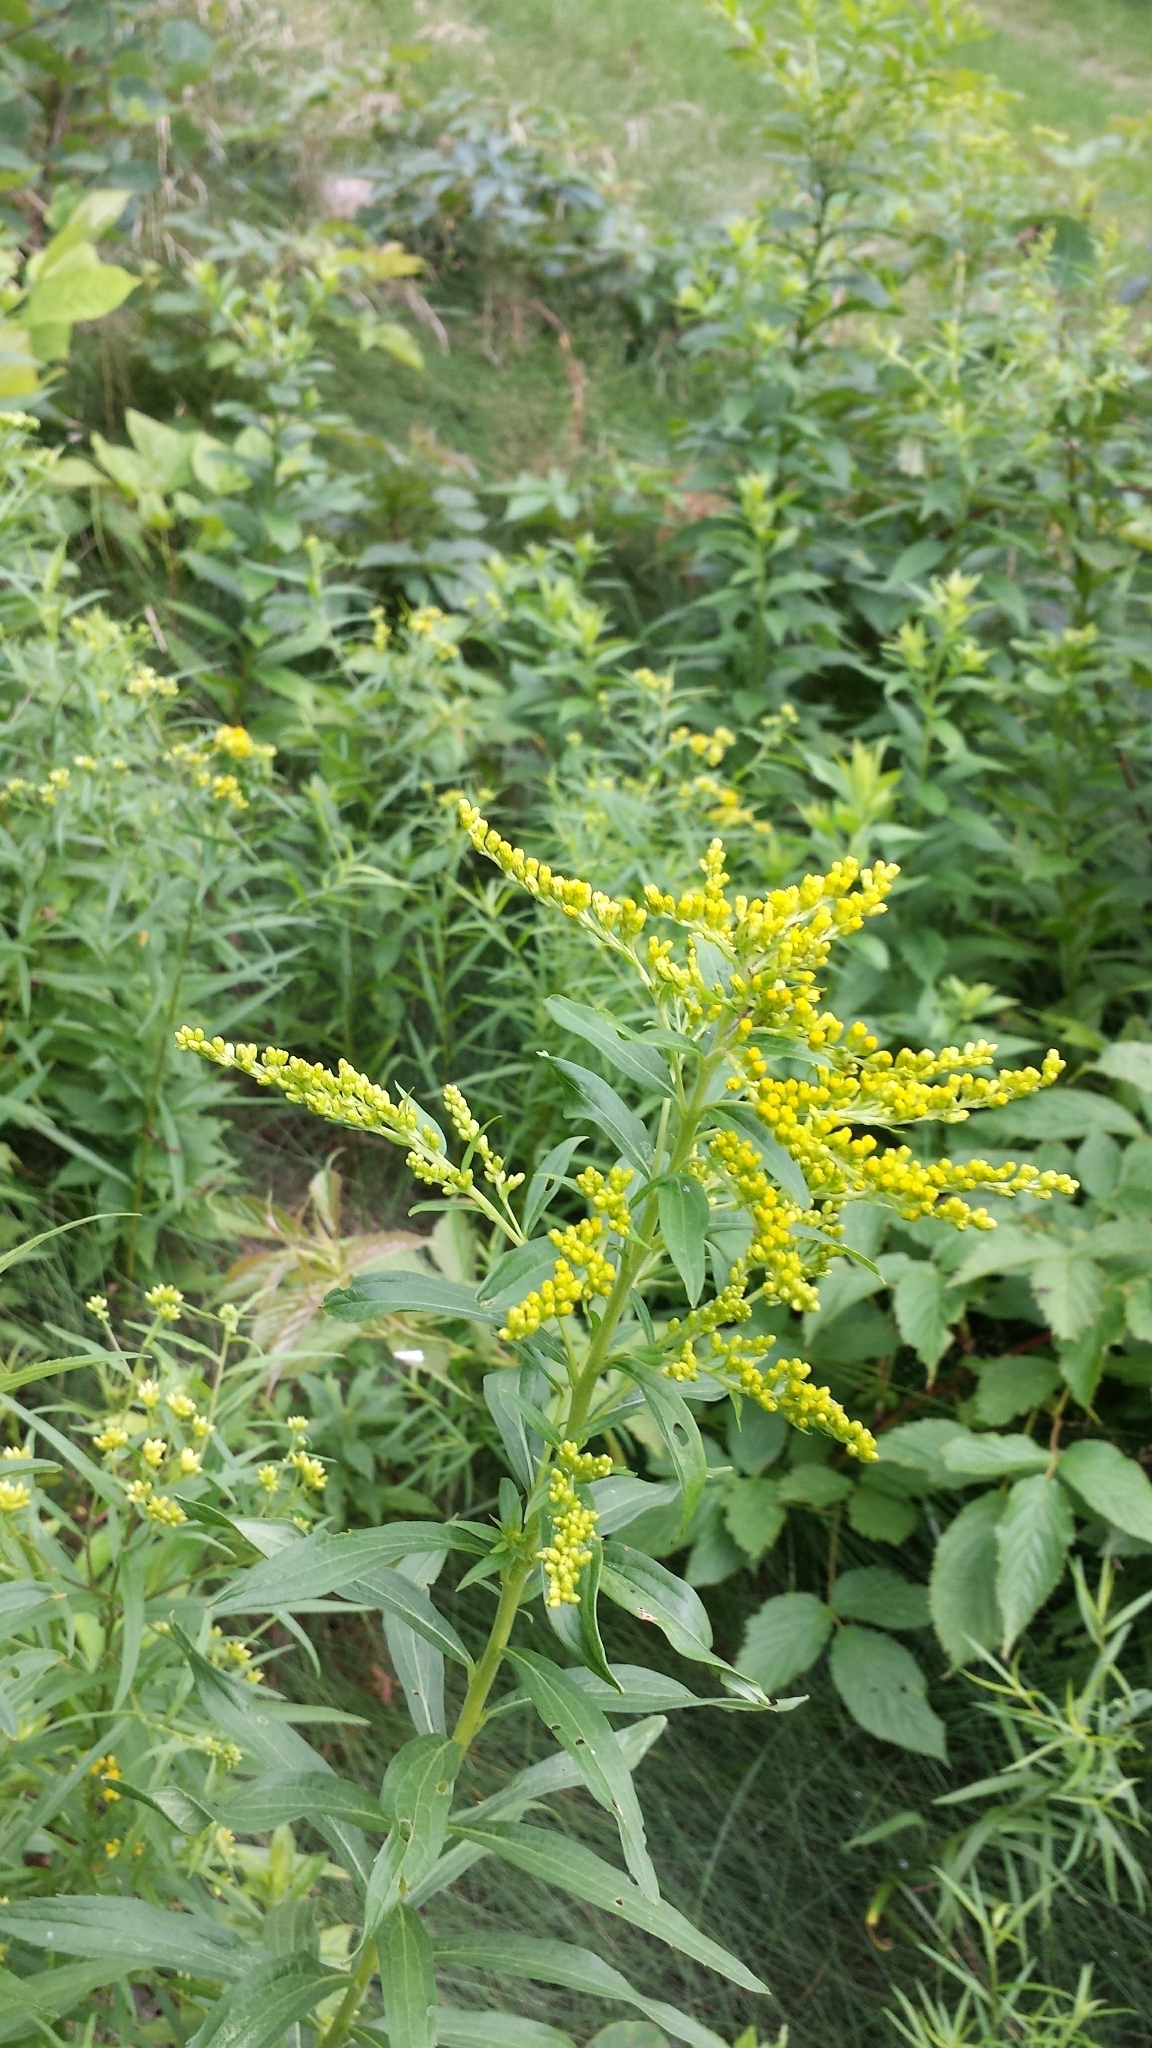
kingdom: Plantae
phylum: Tracheophyta
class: Magnoliopsida
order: Asterales
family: Asteraceae
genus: Solidago
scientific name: Solidago canadensis
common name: Canada goldenrod
